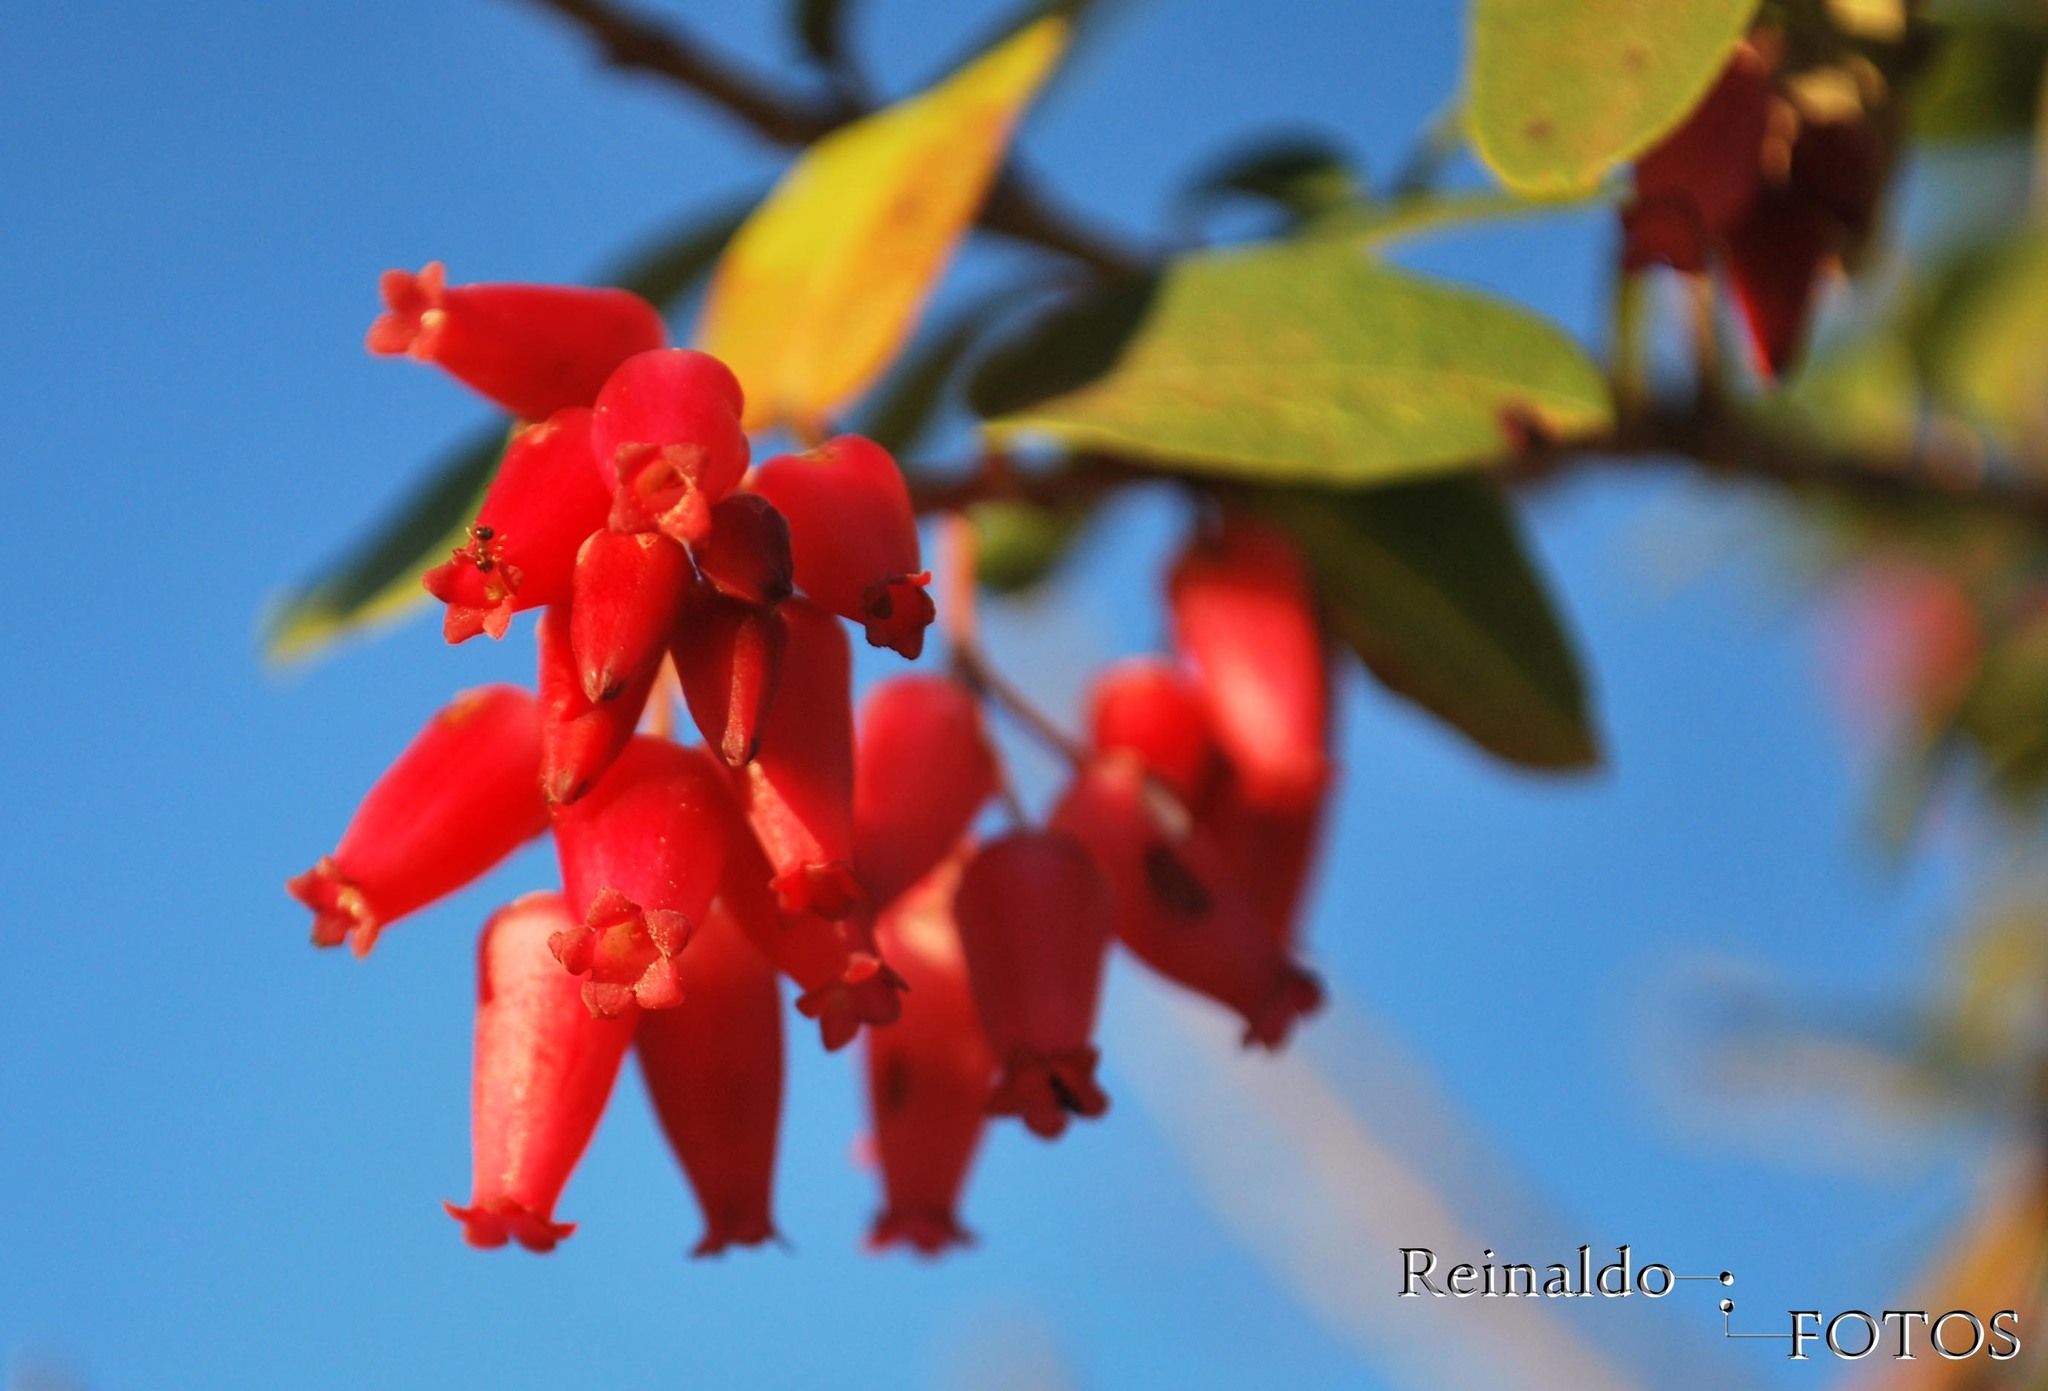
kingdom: Plantae
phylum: Tracheophyta
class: Magnoliopsida
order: Ericales
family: Ericaceae
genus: Agarista
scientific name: Agarista coriifolia
